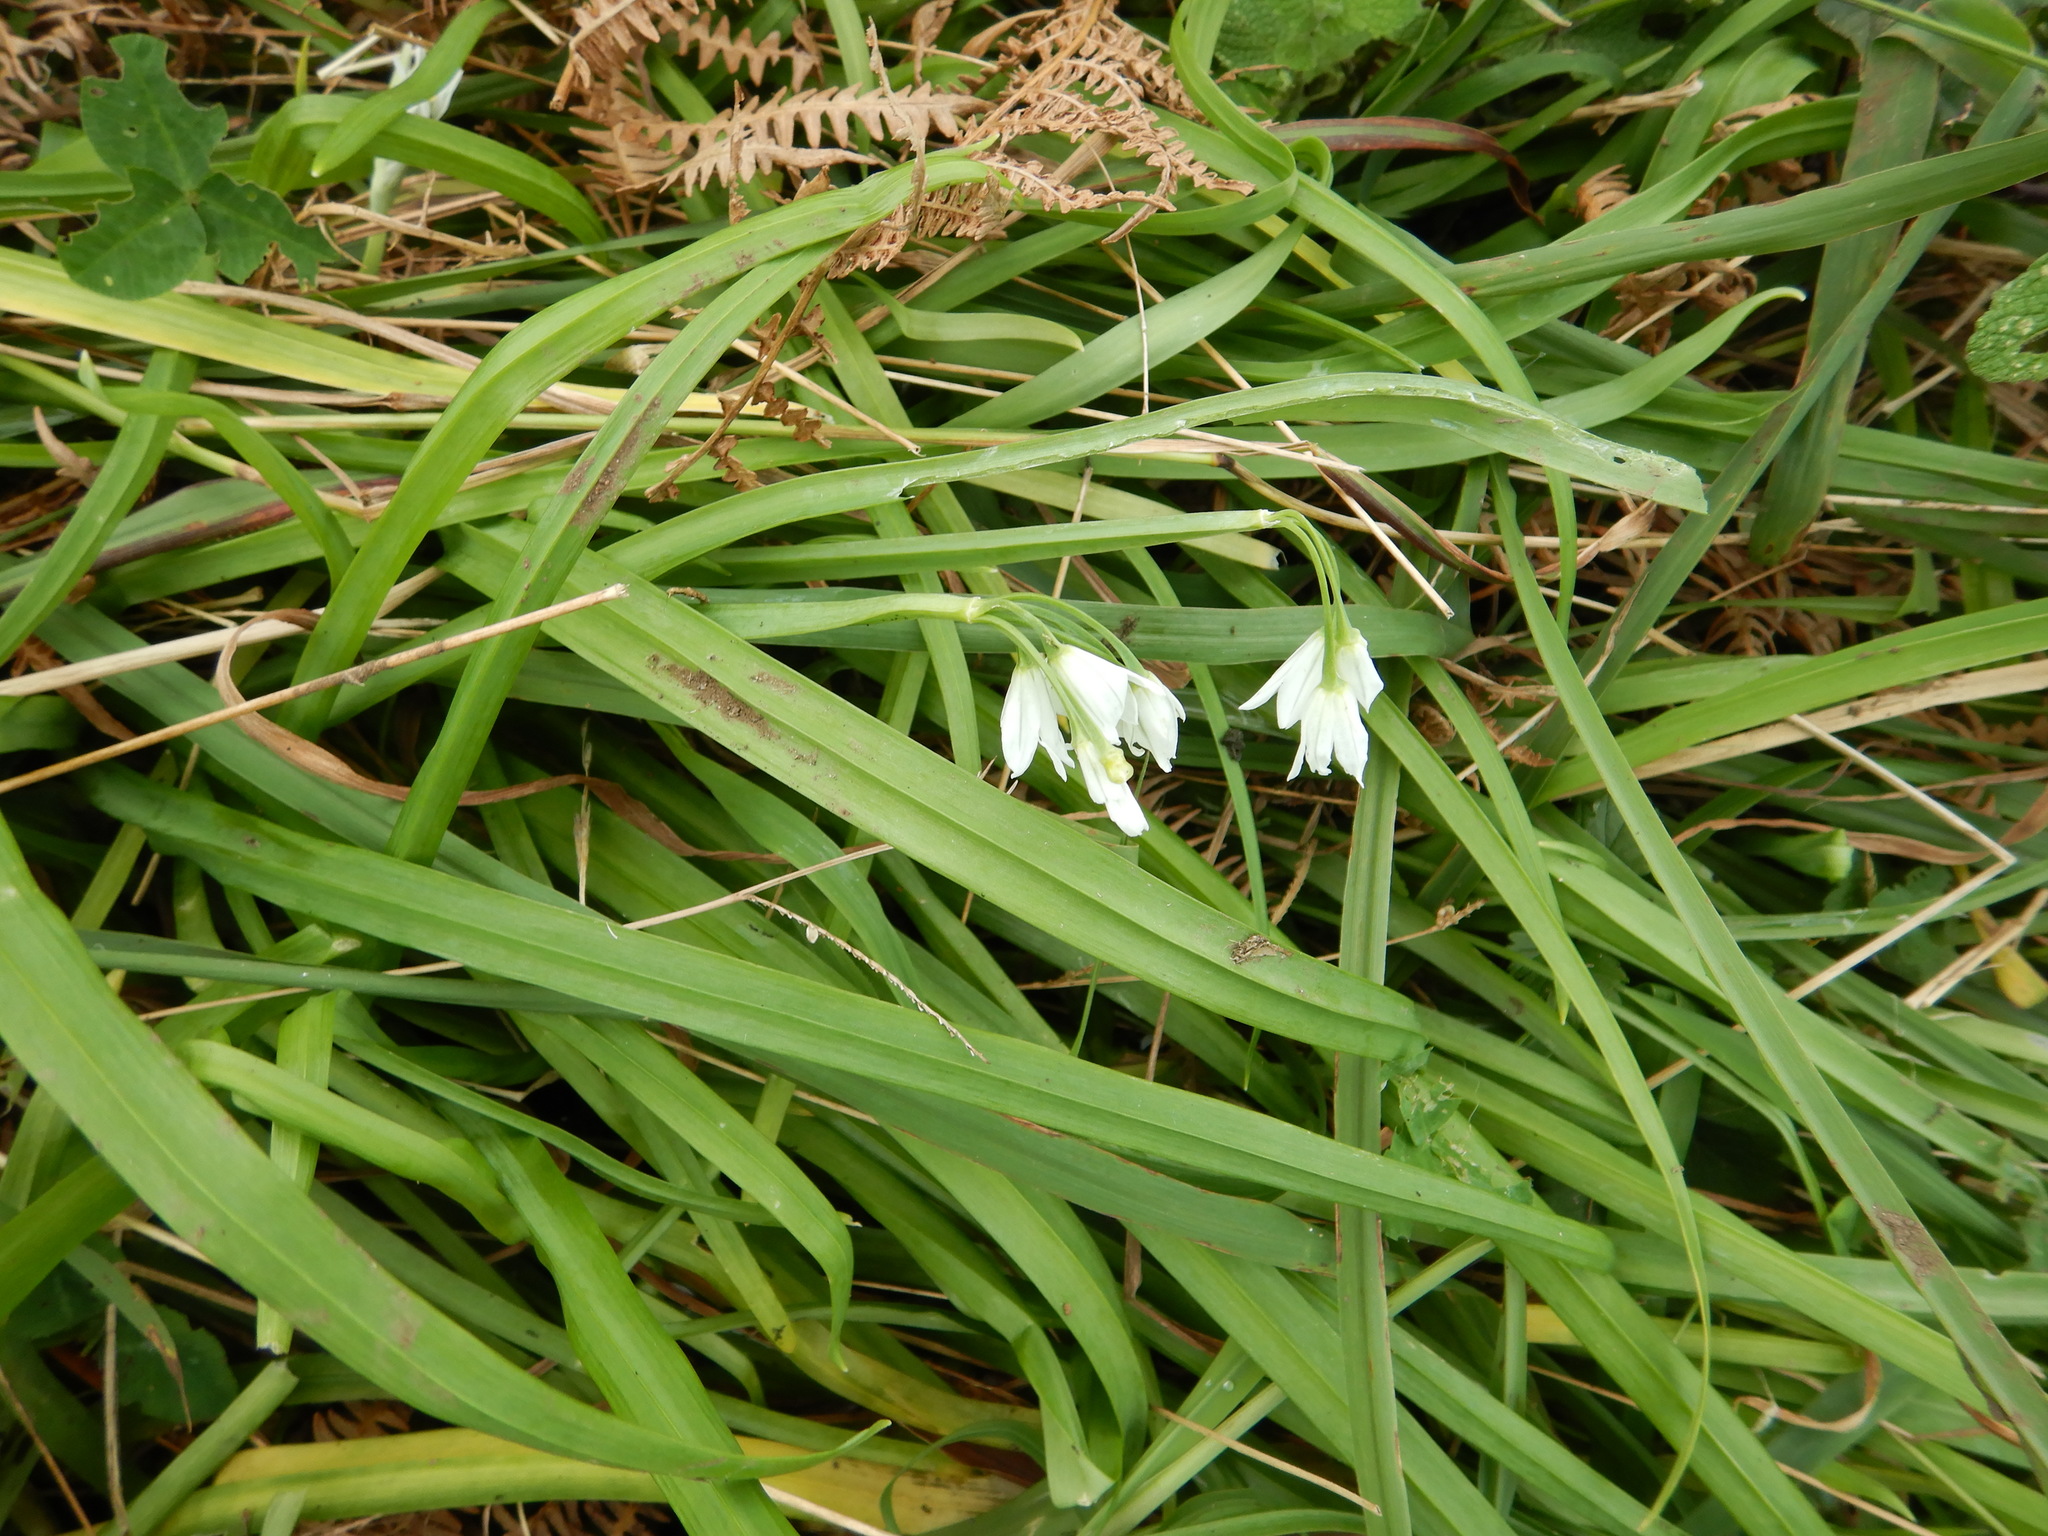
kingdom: Plantae
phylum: Tracheophyta
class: Liliopsida
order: Asparagales
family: Amaryllidaceae
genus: Allium
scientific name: Allium triquetrum
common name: Three-cornered garlic
